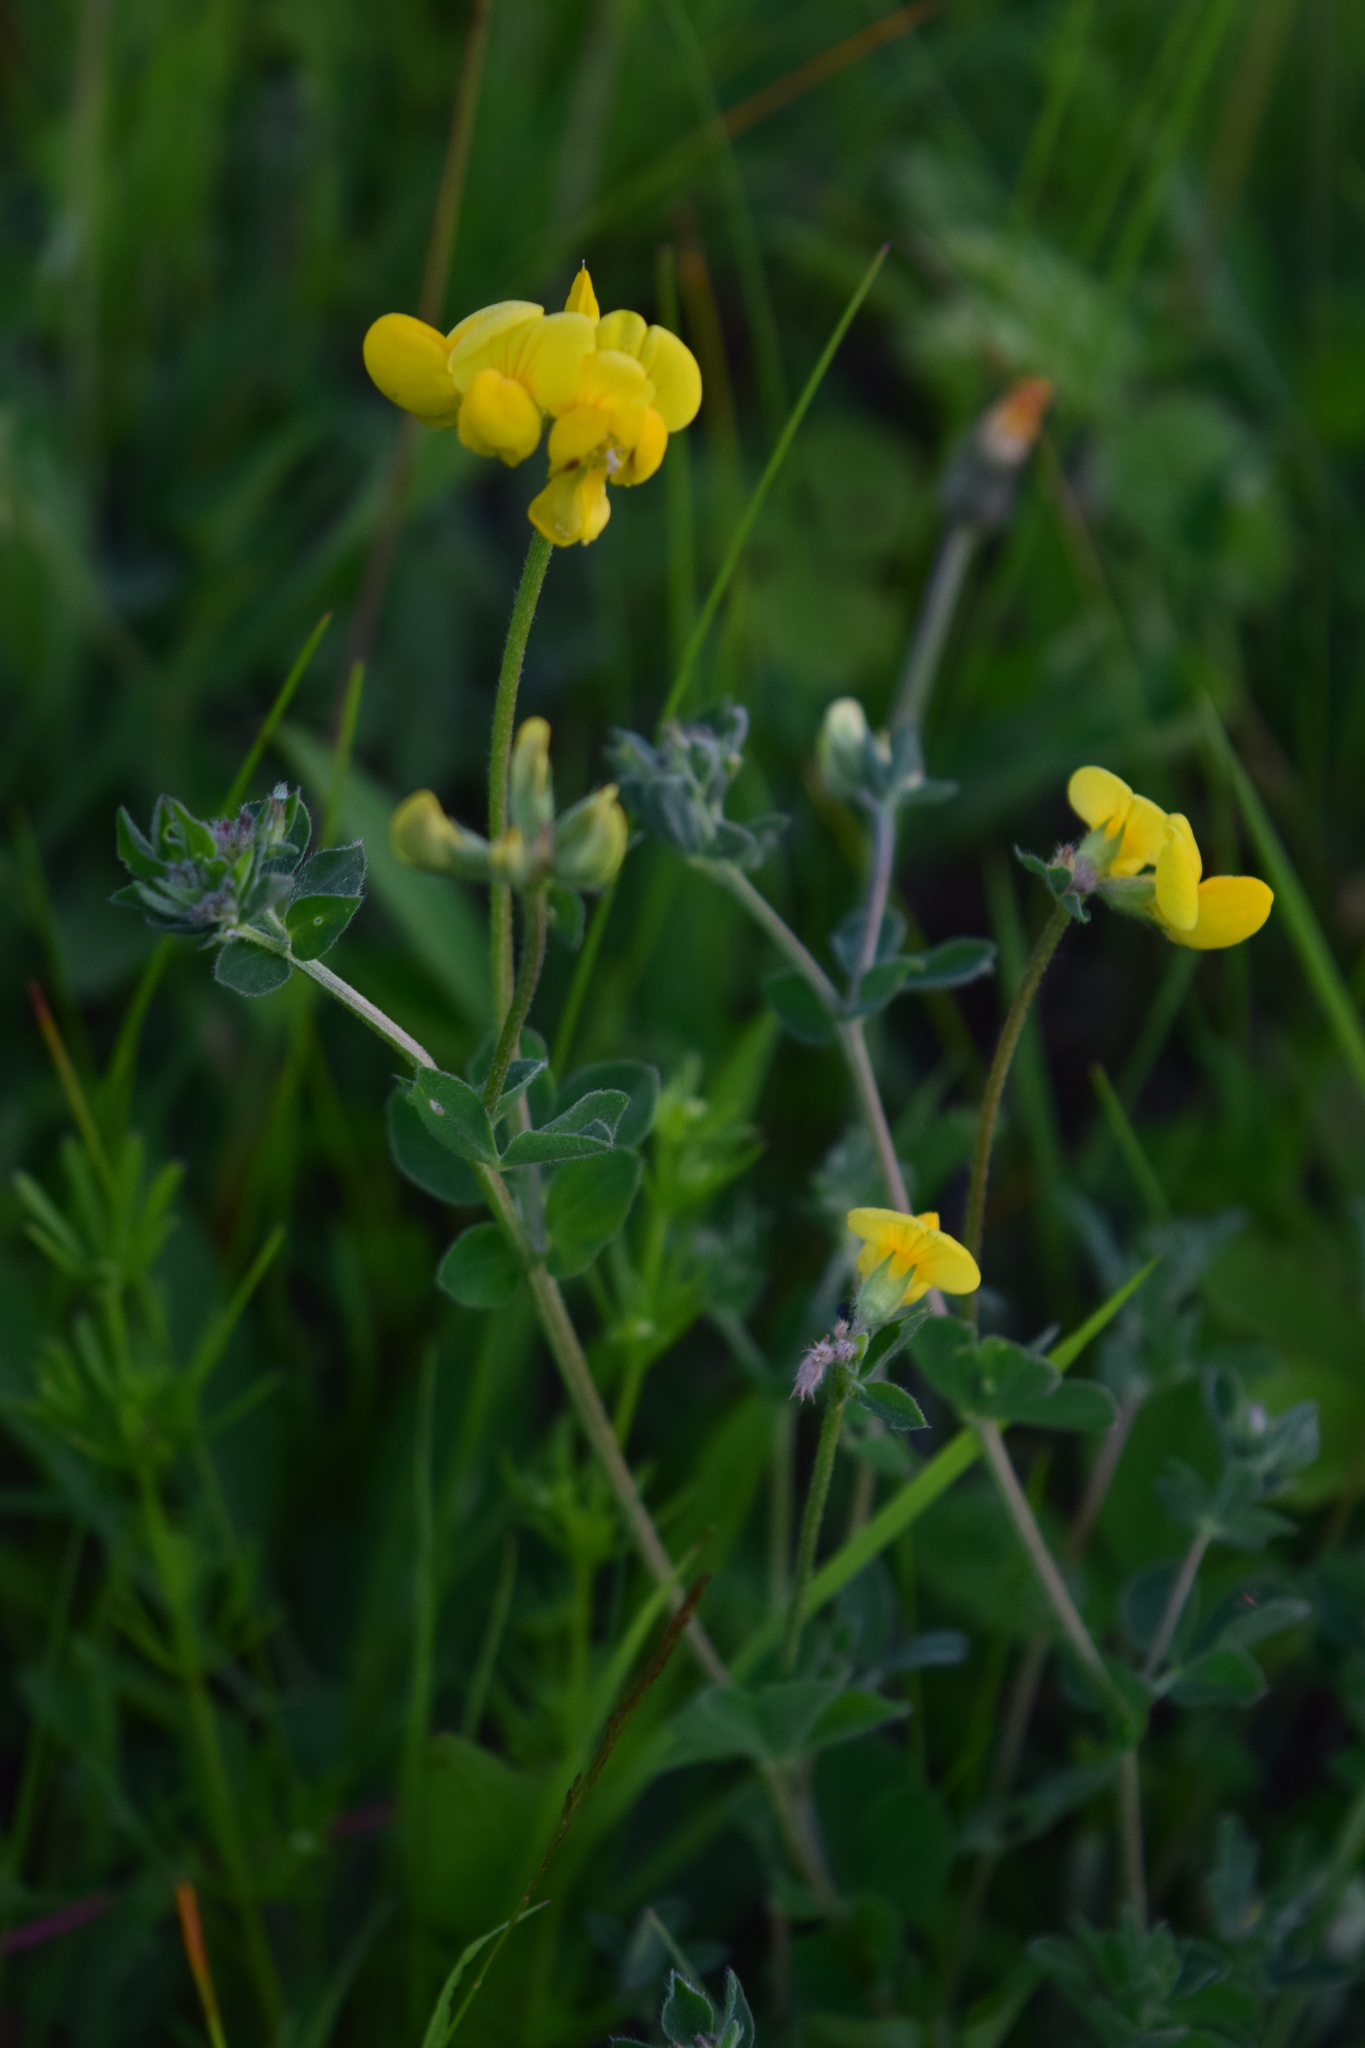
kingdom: Plantae
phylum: Tracheophyta
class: Magnoliopsida
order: Fabales
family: Fabaceae
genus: Lotus
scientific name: Lotus corniculatus
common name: Common bird's-foot-trefoil
